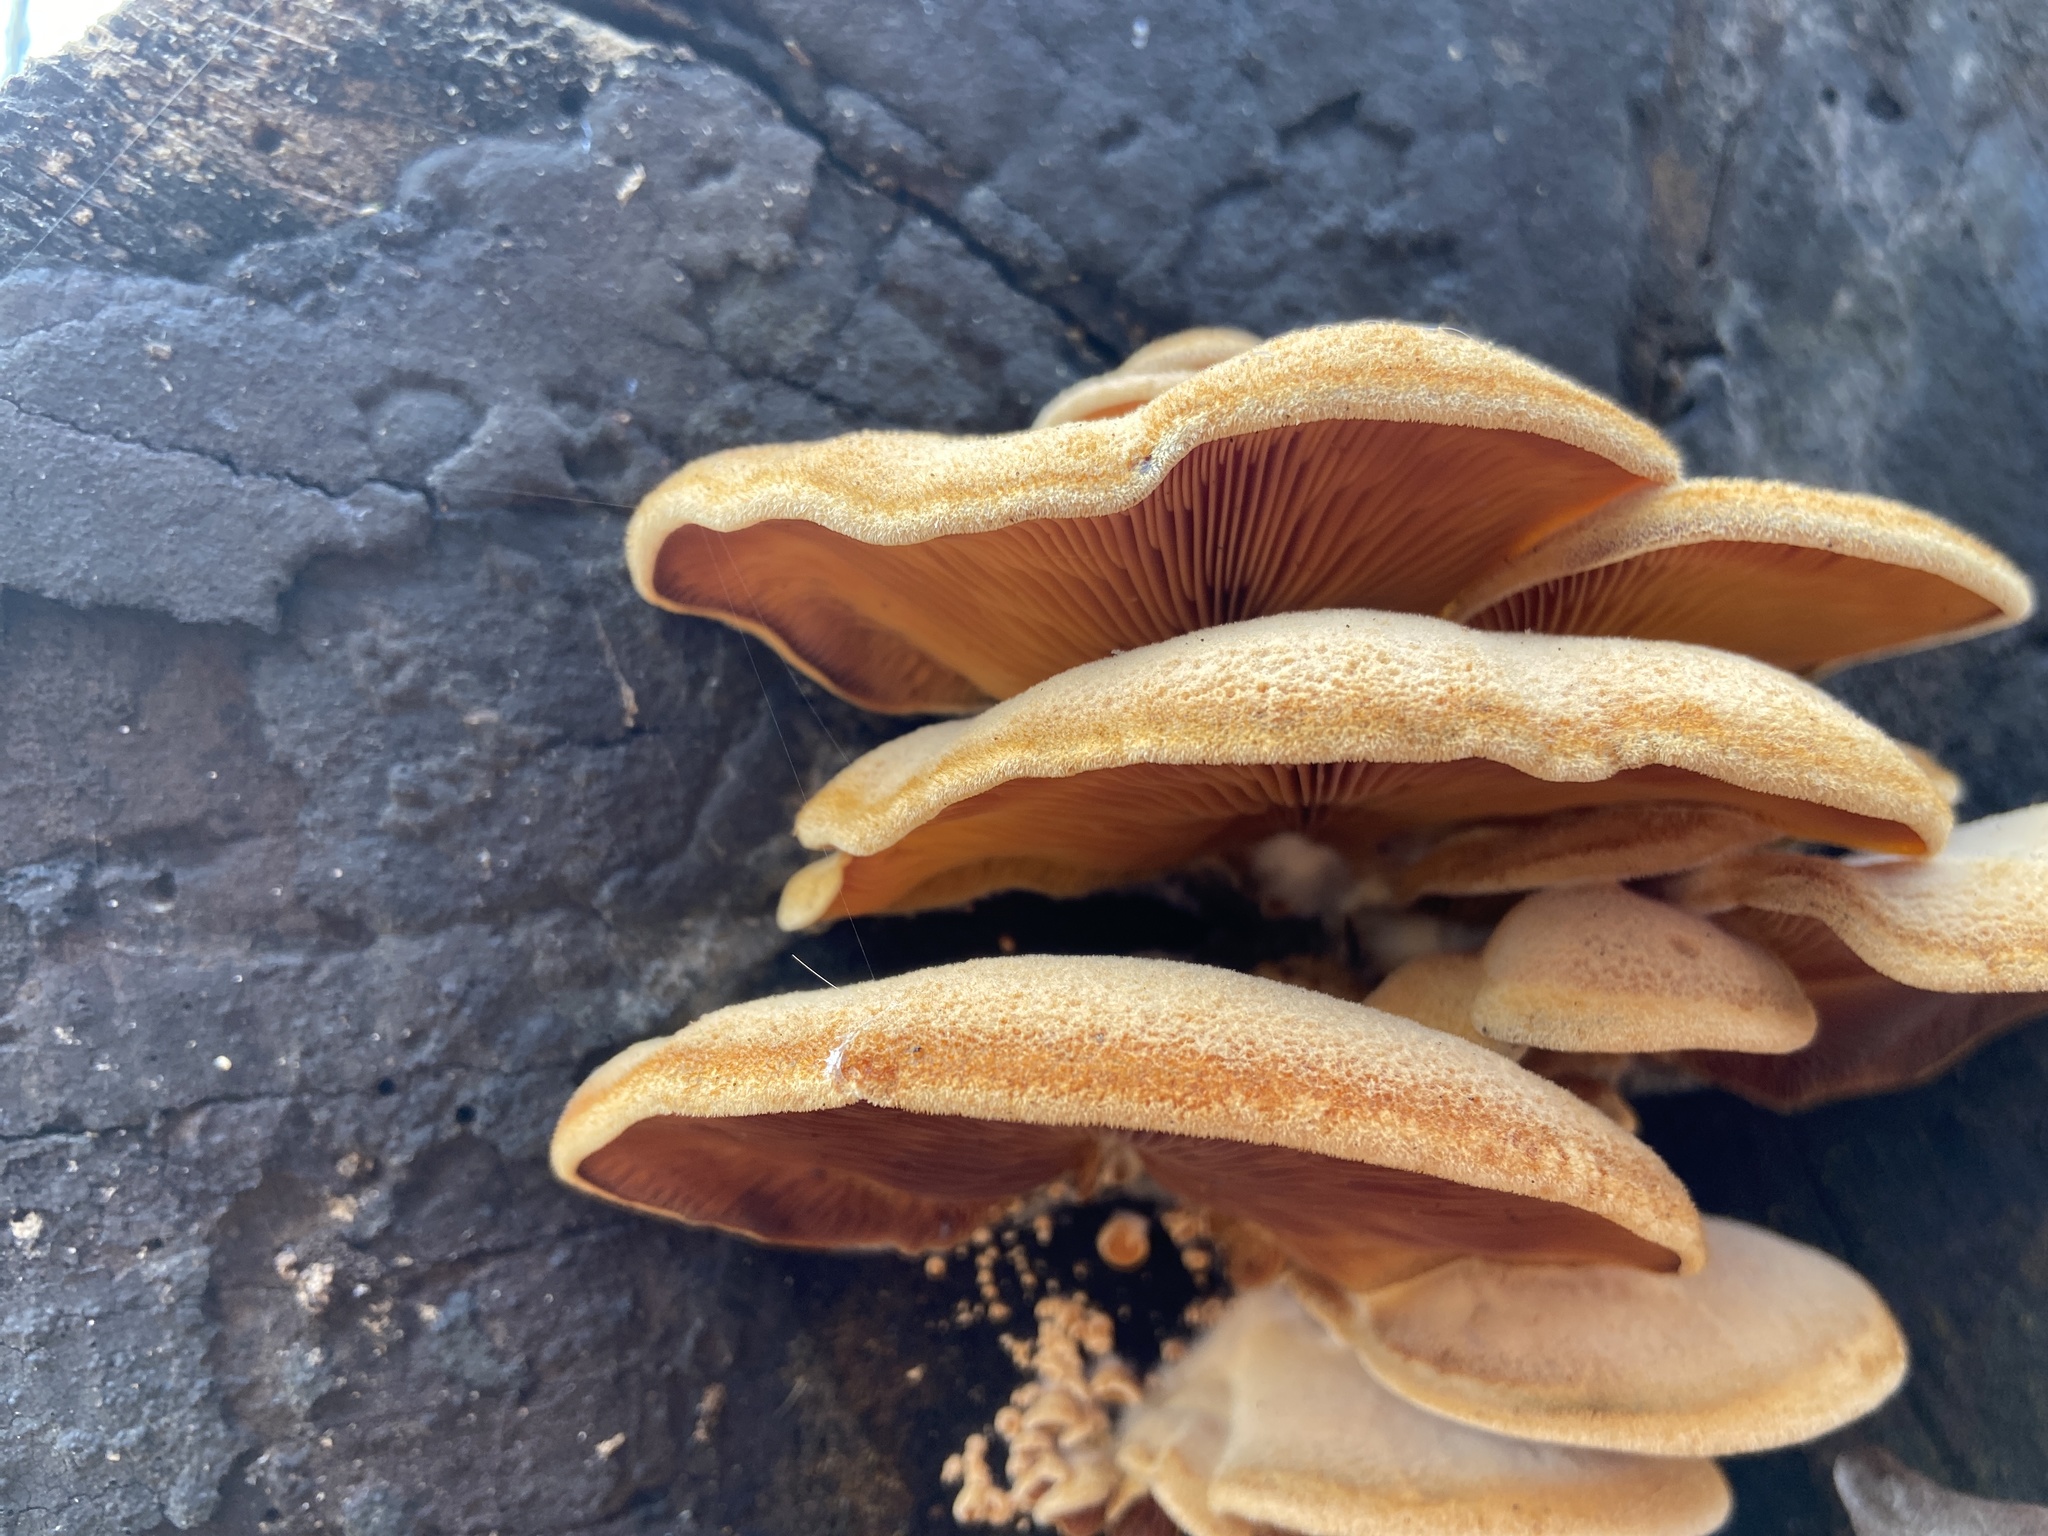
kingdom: Fungi
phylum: Basidiomycota
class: Agaricomycetes
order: Agaricales
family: Phyllotopsidaceae
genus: Phyllotopsis
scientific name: Phyllotopsis nidulans
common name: Orange mock oyster
